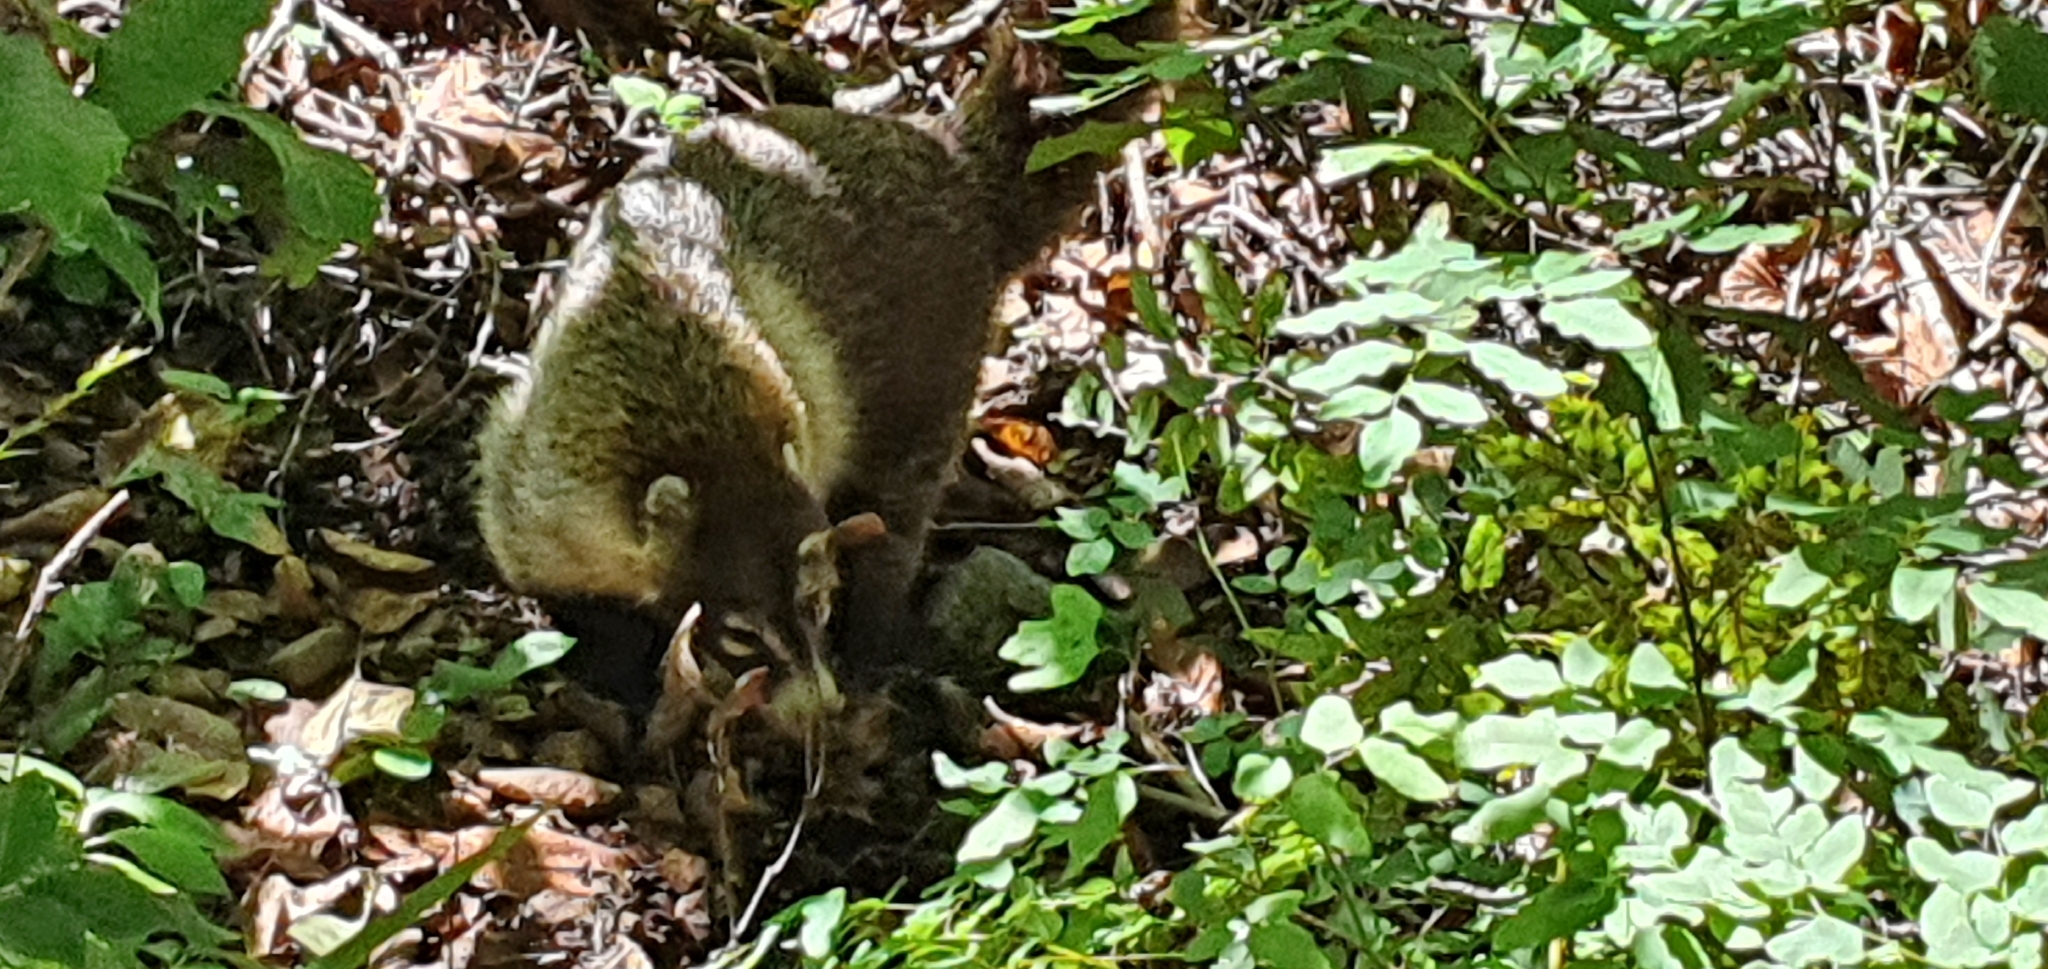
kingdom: Animalia
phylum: Chordata
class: Mammalia
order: Carnivora
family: Procyonidae
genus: Nasua
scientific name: Nasua narica
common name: White-nosed coati
